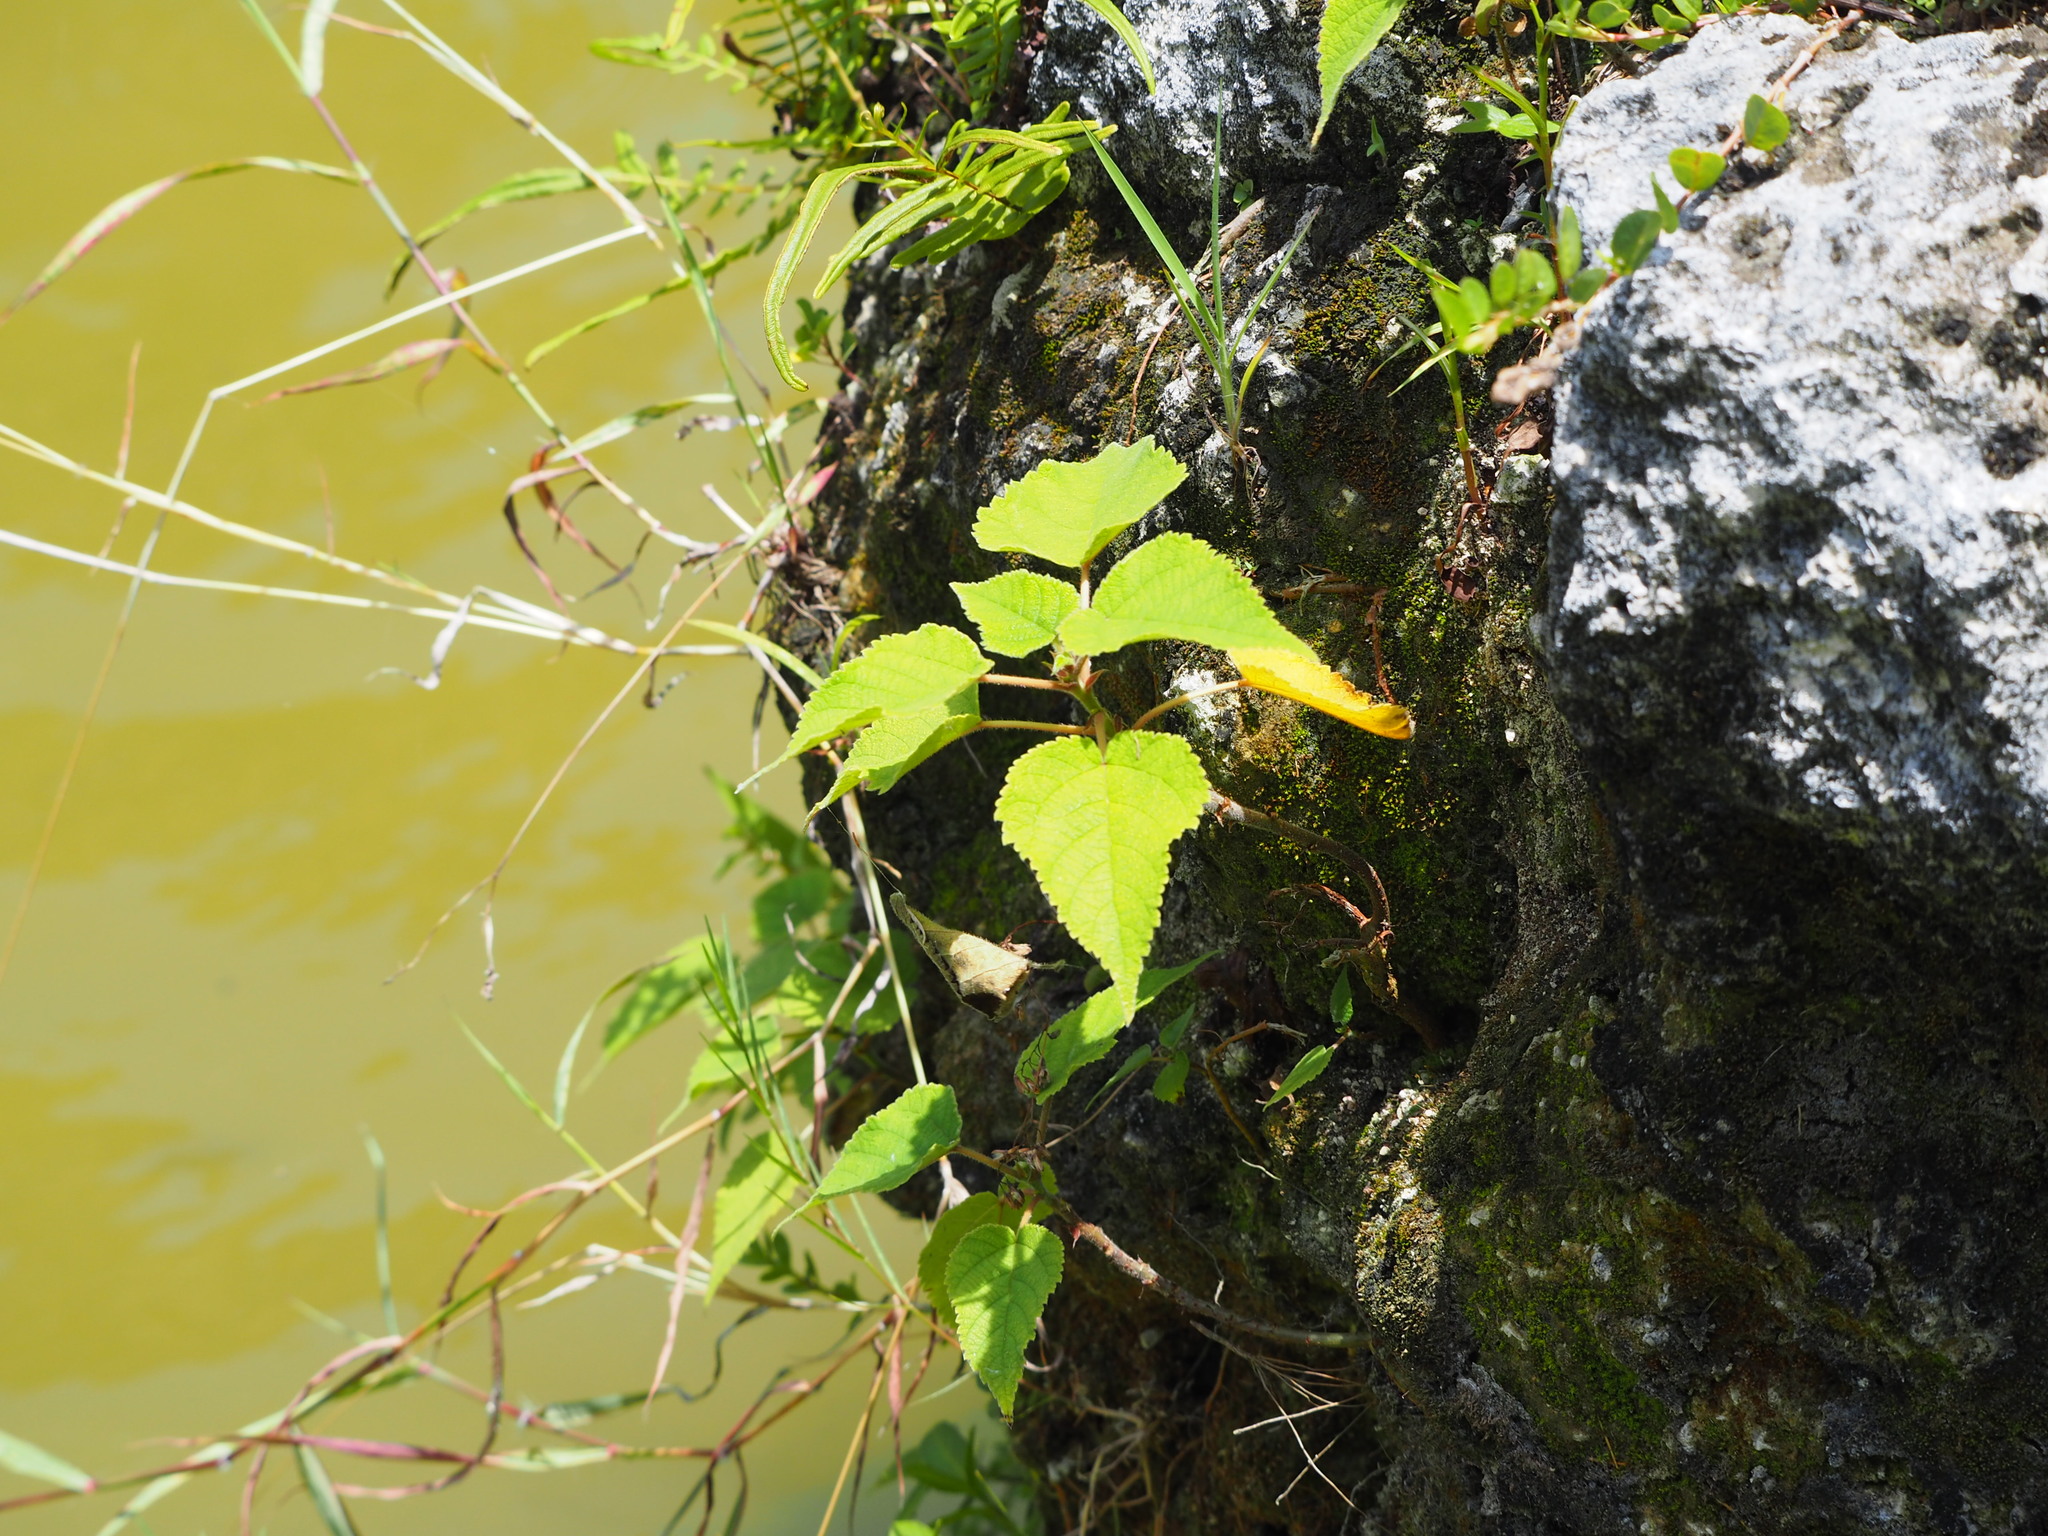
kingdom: Plantae
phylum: Tracheophyta
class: Magnoliopsida
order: Rosales
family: Moraceae
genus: Broussonetia
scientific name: Broussonetia papyrifera
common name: Paper mulberry
